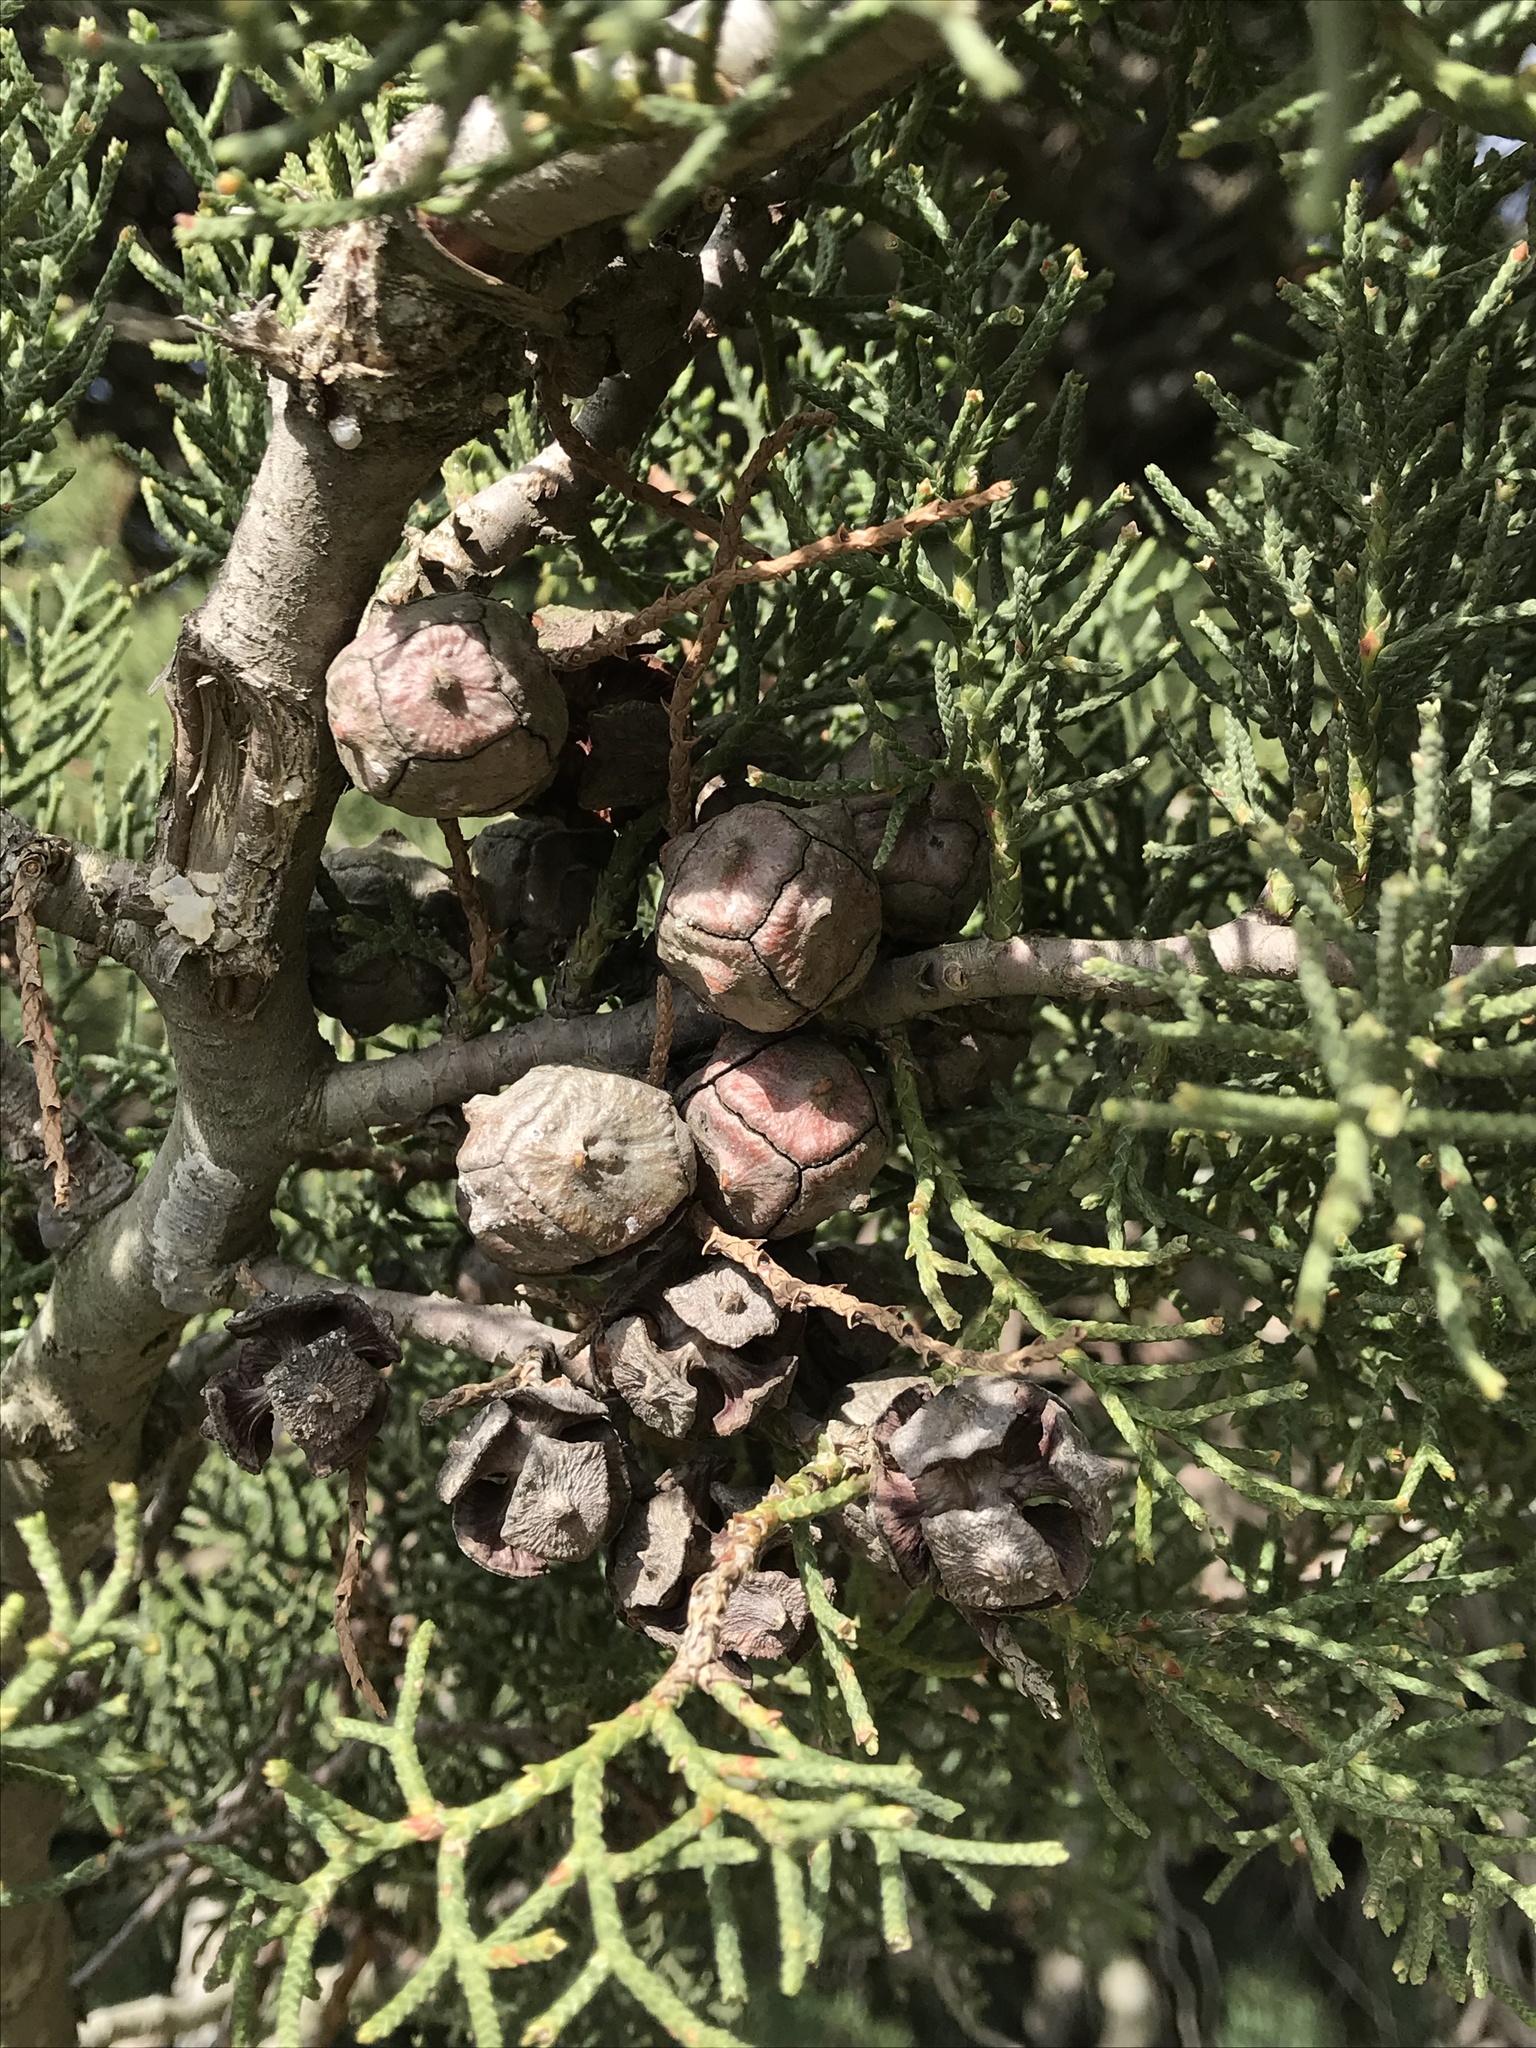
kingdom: Plantae
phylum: Tracheophyta
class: Pinopsida
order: Pinales
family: Cupressaceae
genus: Cupressus
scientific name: Cupressus macrocarpa
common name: Monterey cypress
